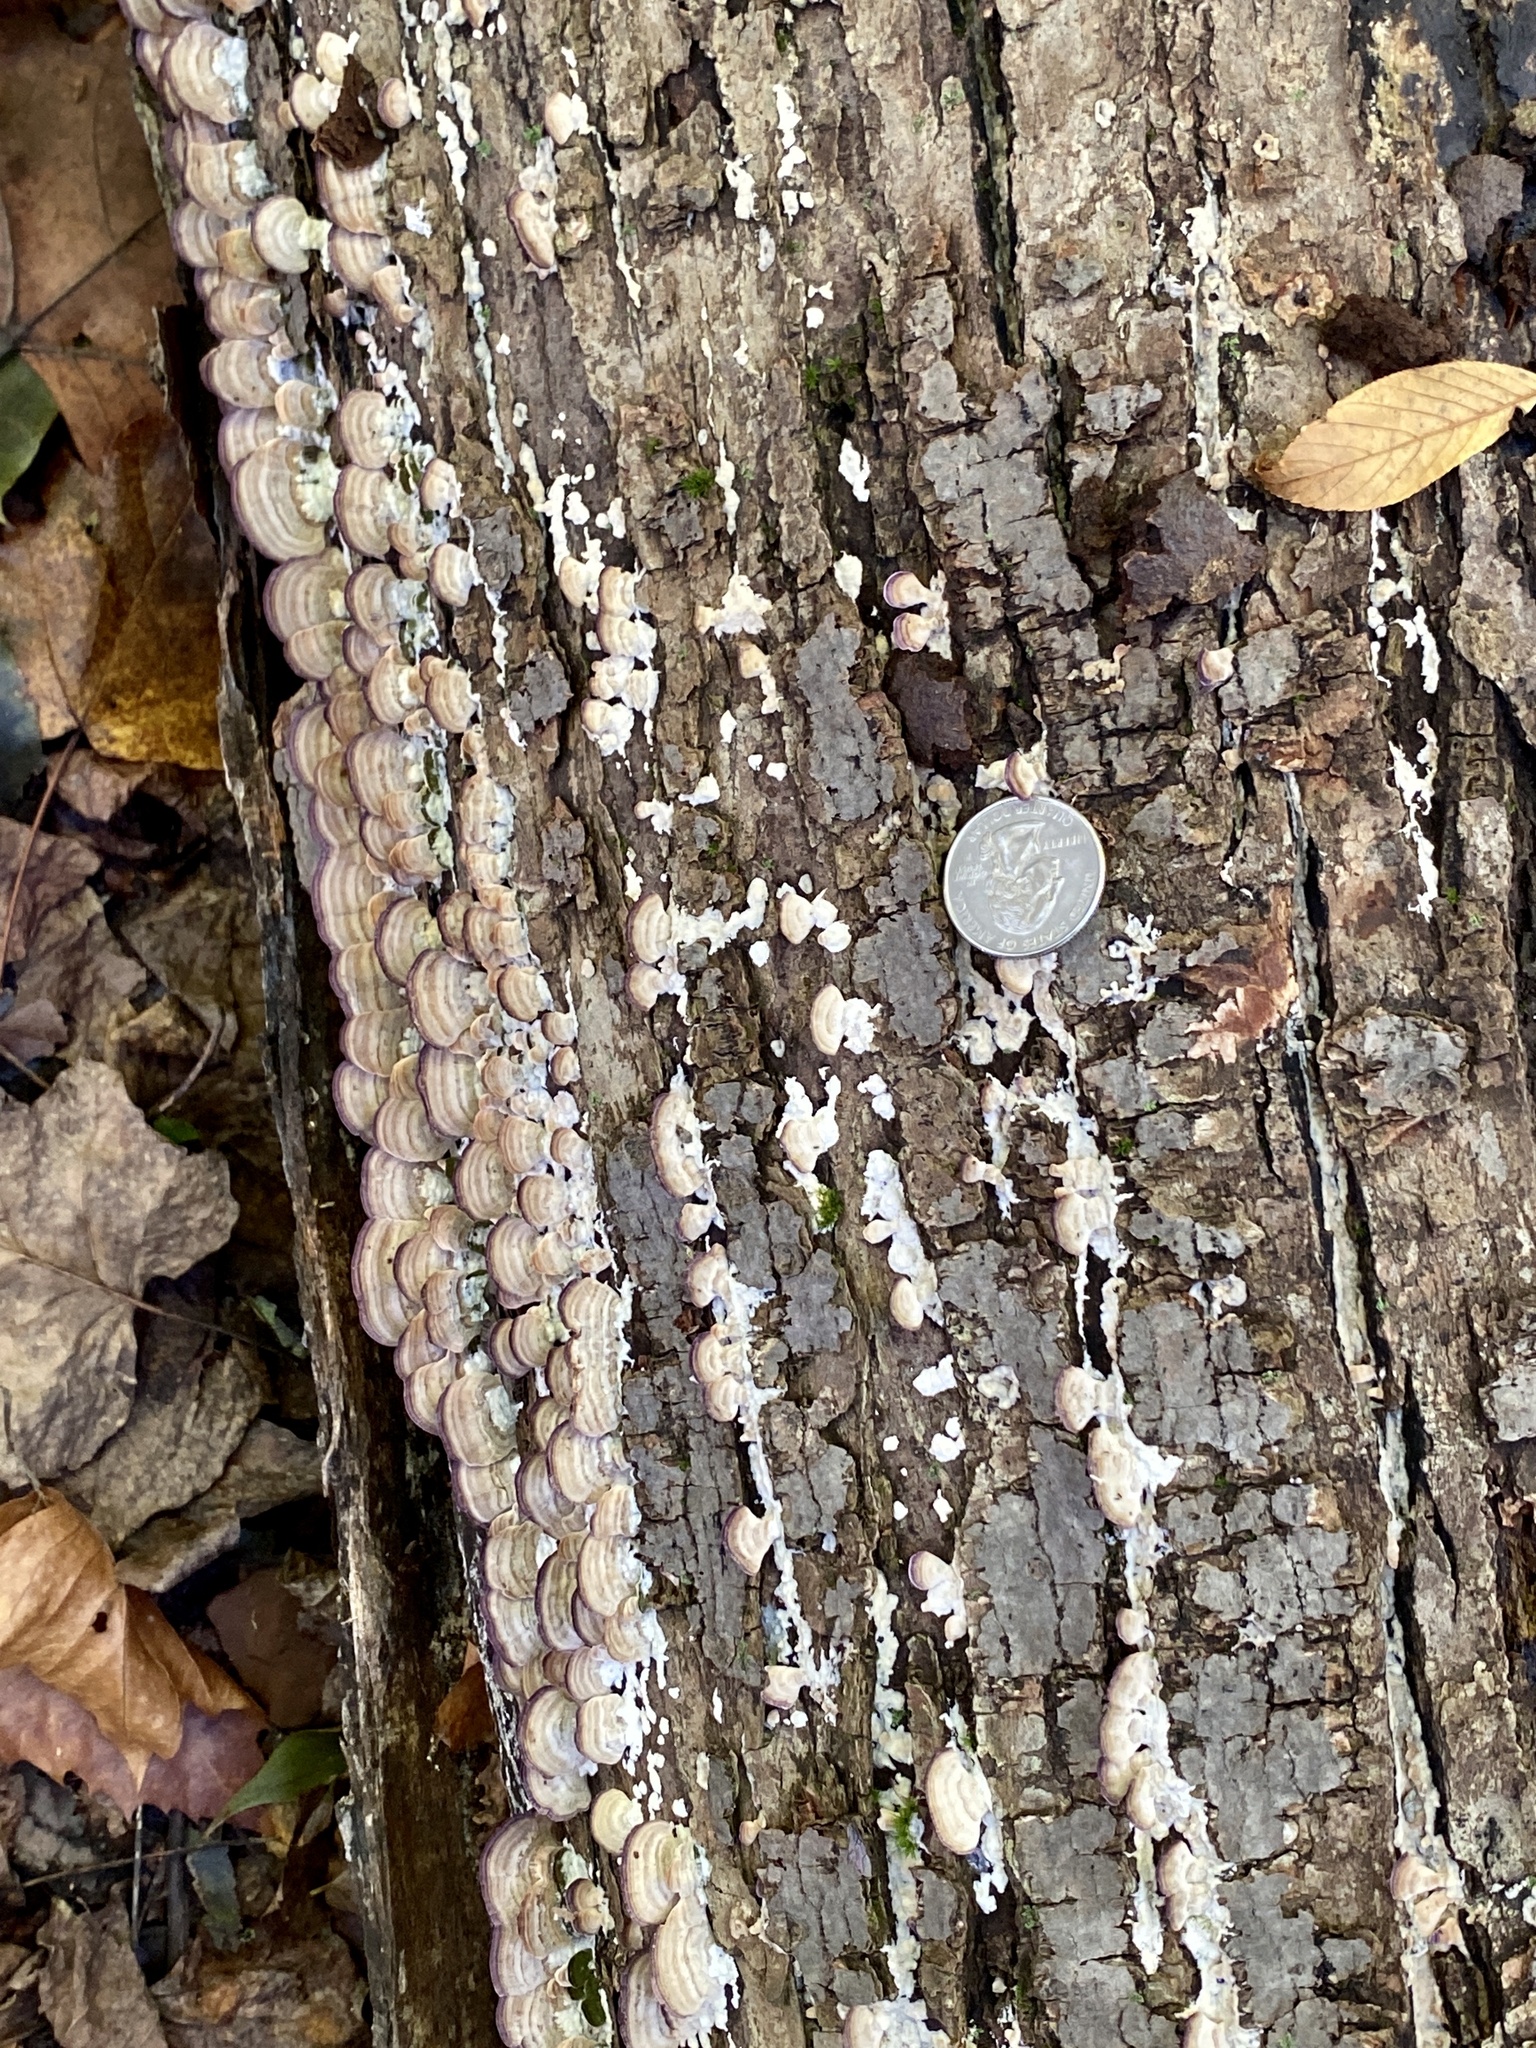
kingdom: Fungi
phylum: Basidiomycota
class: Agaricomycetes
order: Hymenochaetales
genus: Trichaptum
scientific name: Trichaptum biforme
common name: Violet-toothed polypore
